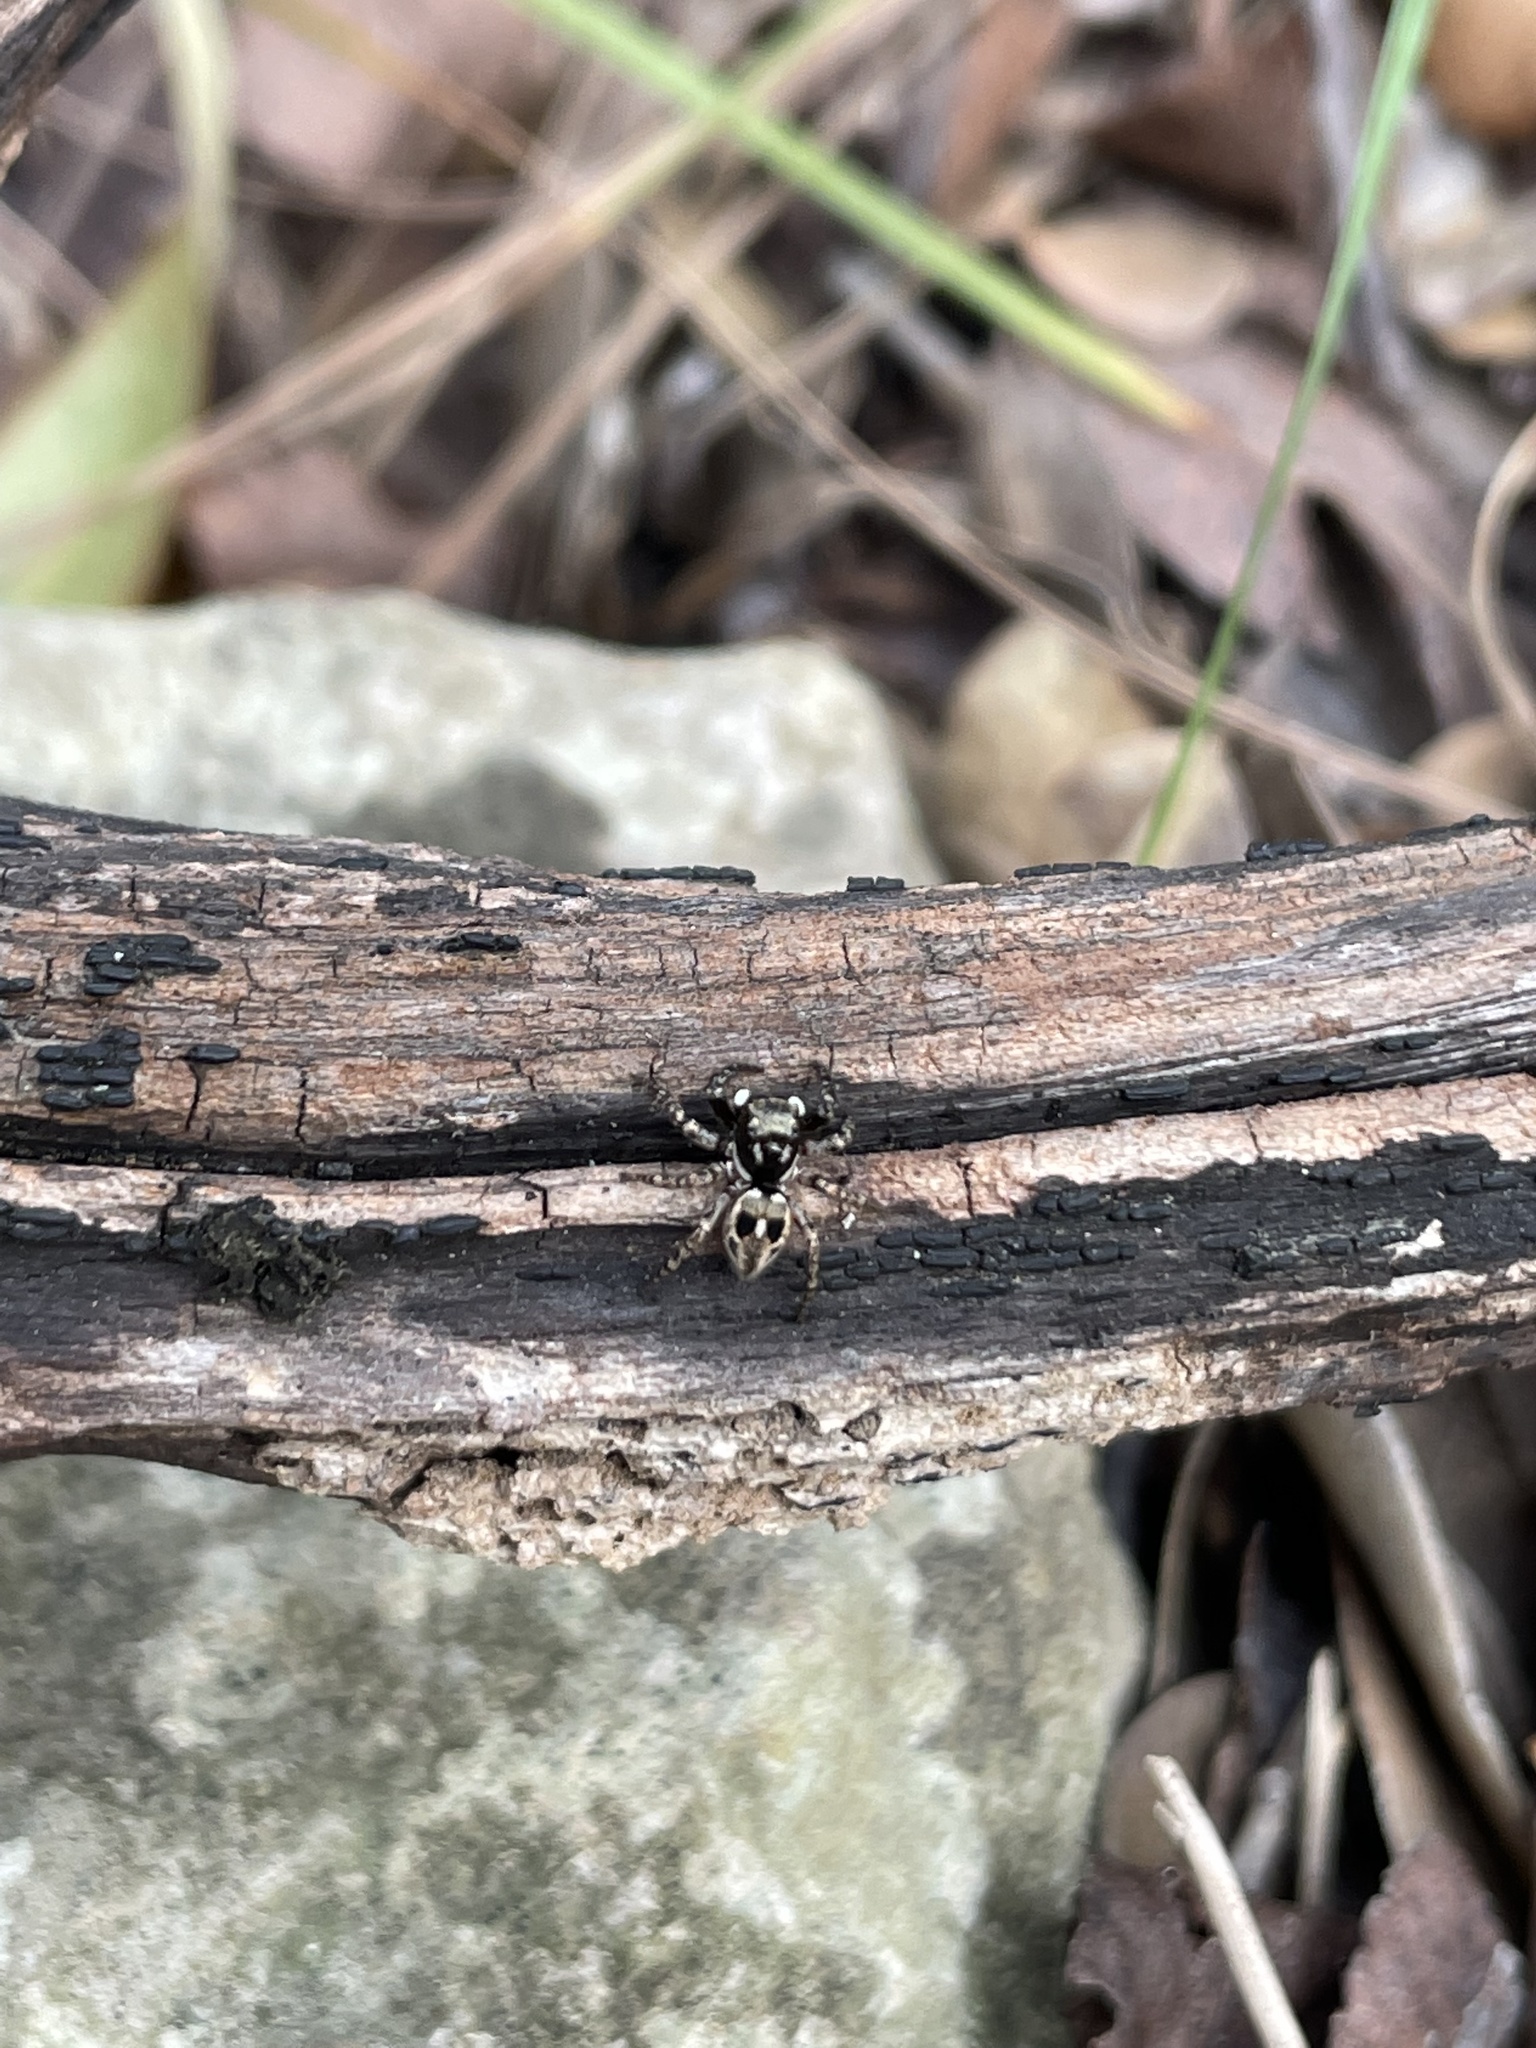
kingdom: Animalia
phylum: Arthropoda
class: Arachnida
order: Araneae
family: Salticidae
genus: Anasaitis
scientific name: Anasaitis canosa
